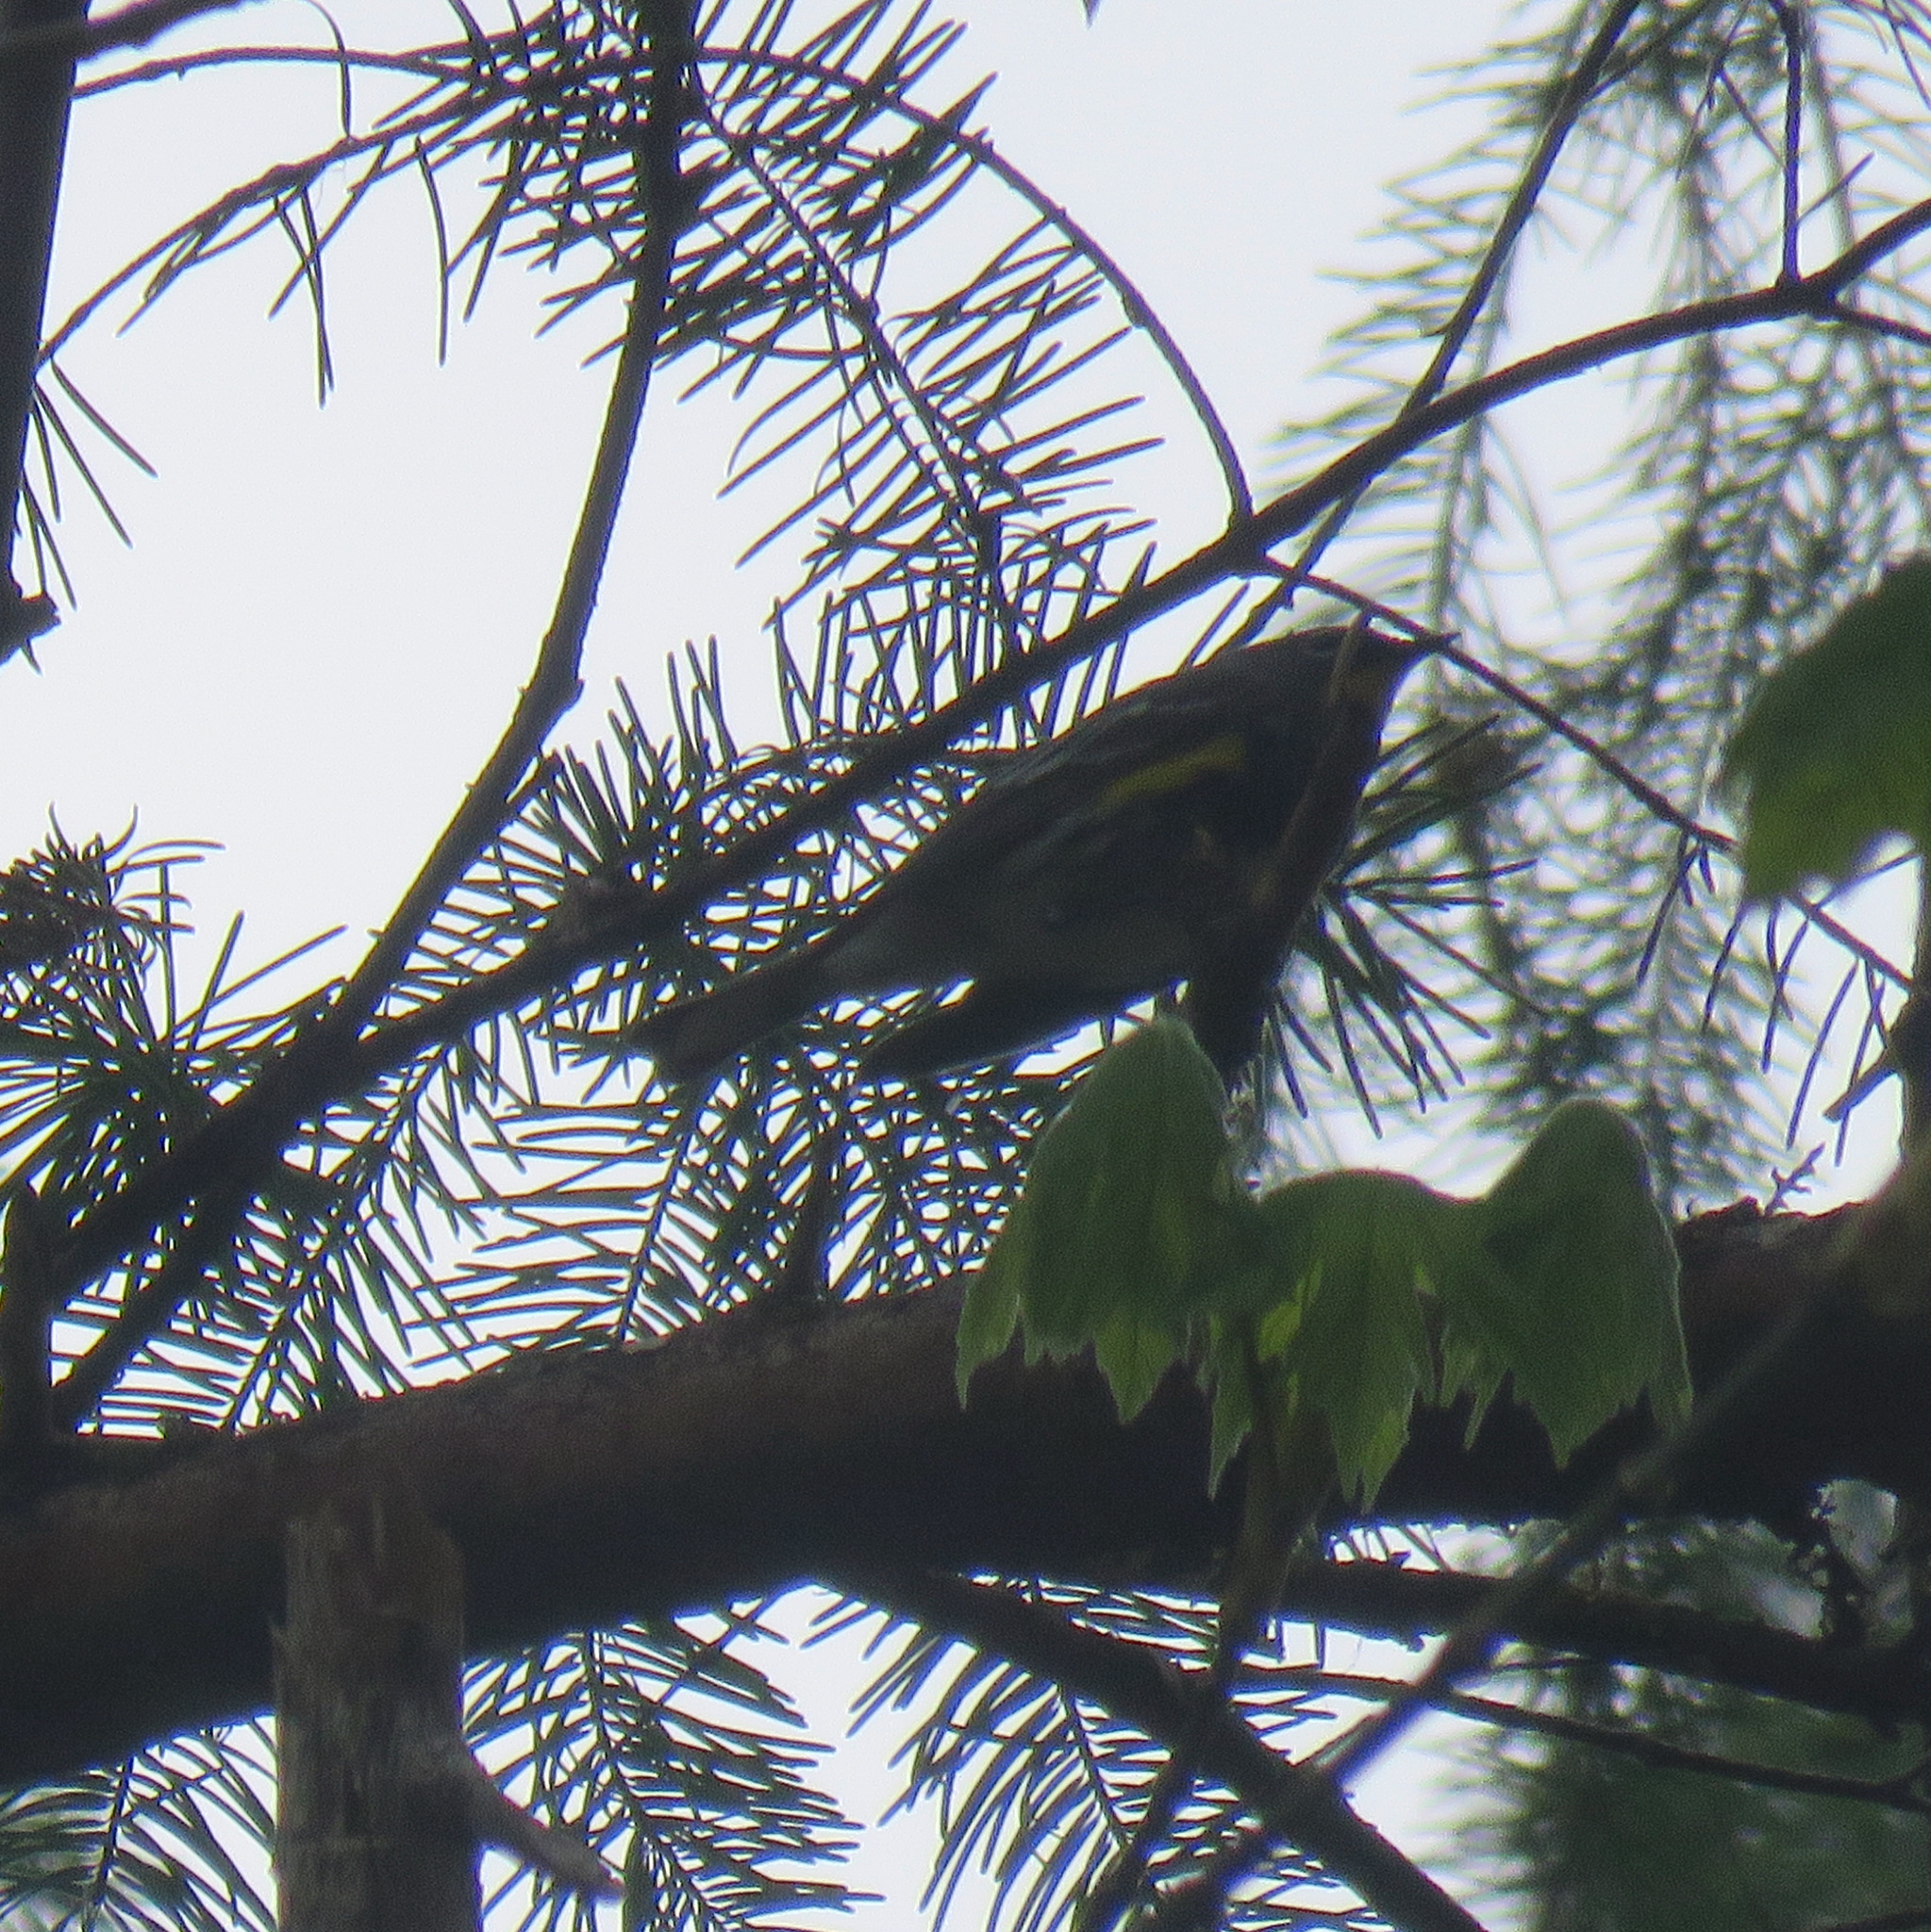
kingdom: Animalia
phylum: Chordata
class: Aves
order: Passeriformes
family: Parulidae
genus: Setophaga
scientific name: Setophaga coronata
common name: Myrtle warbler
